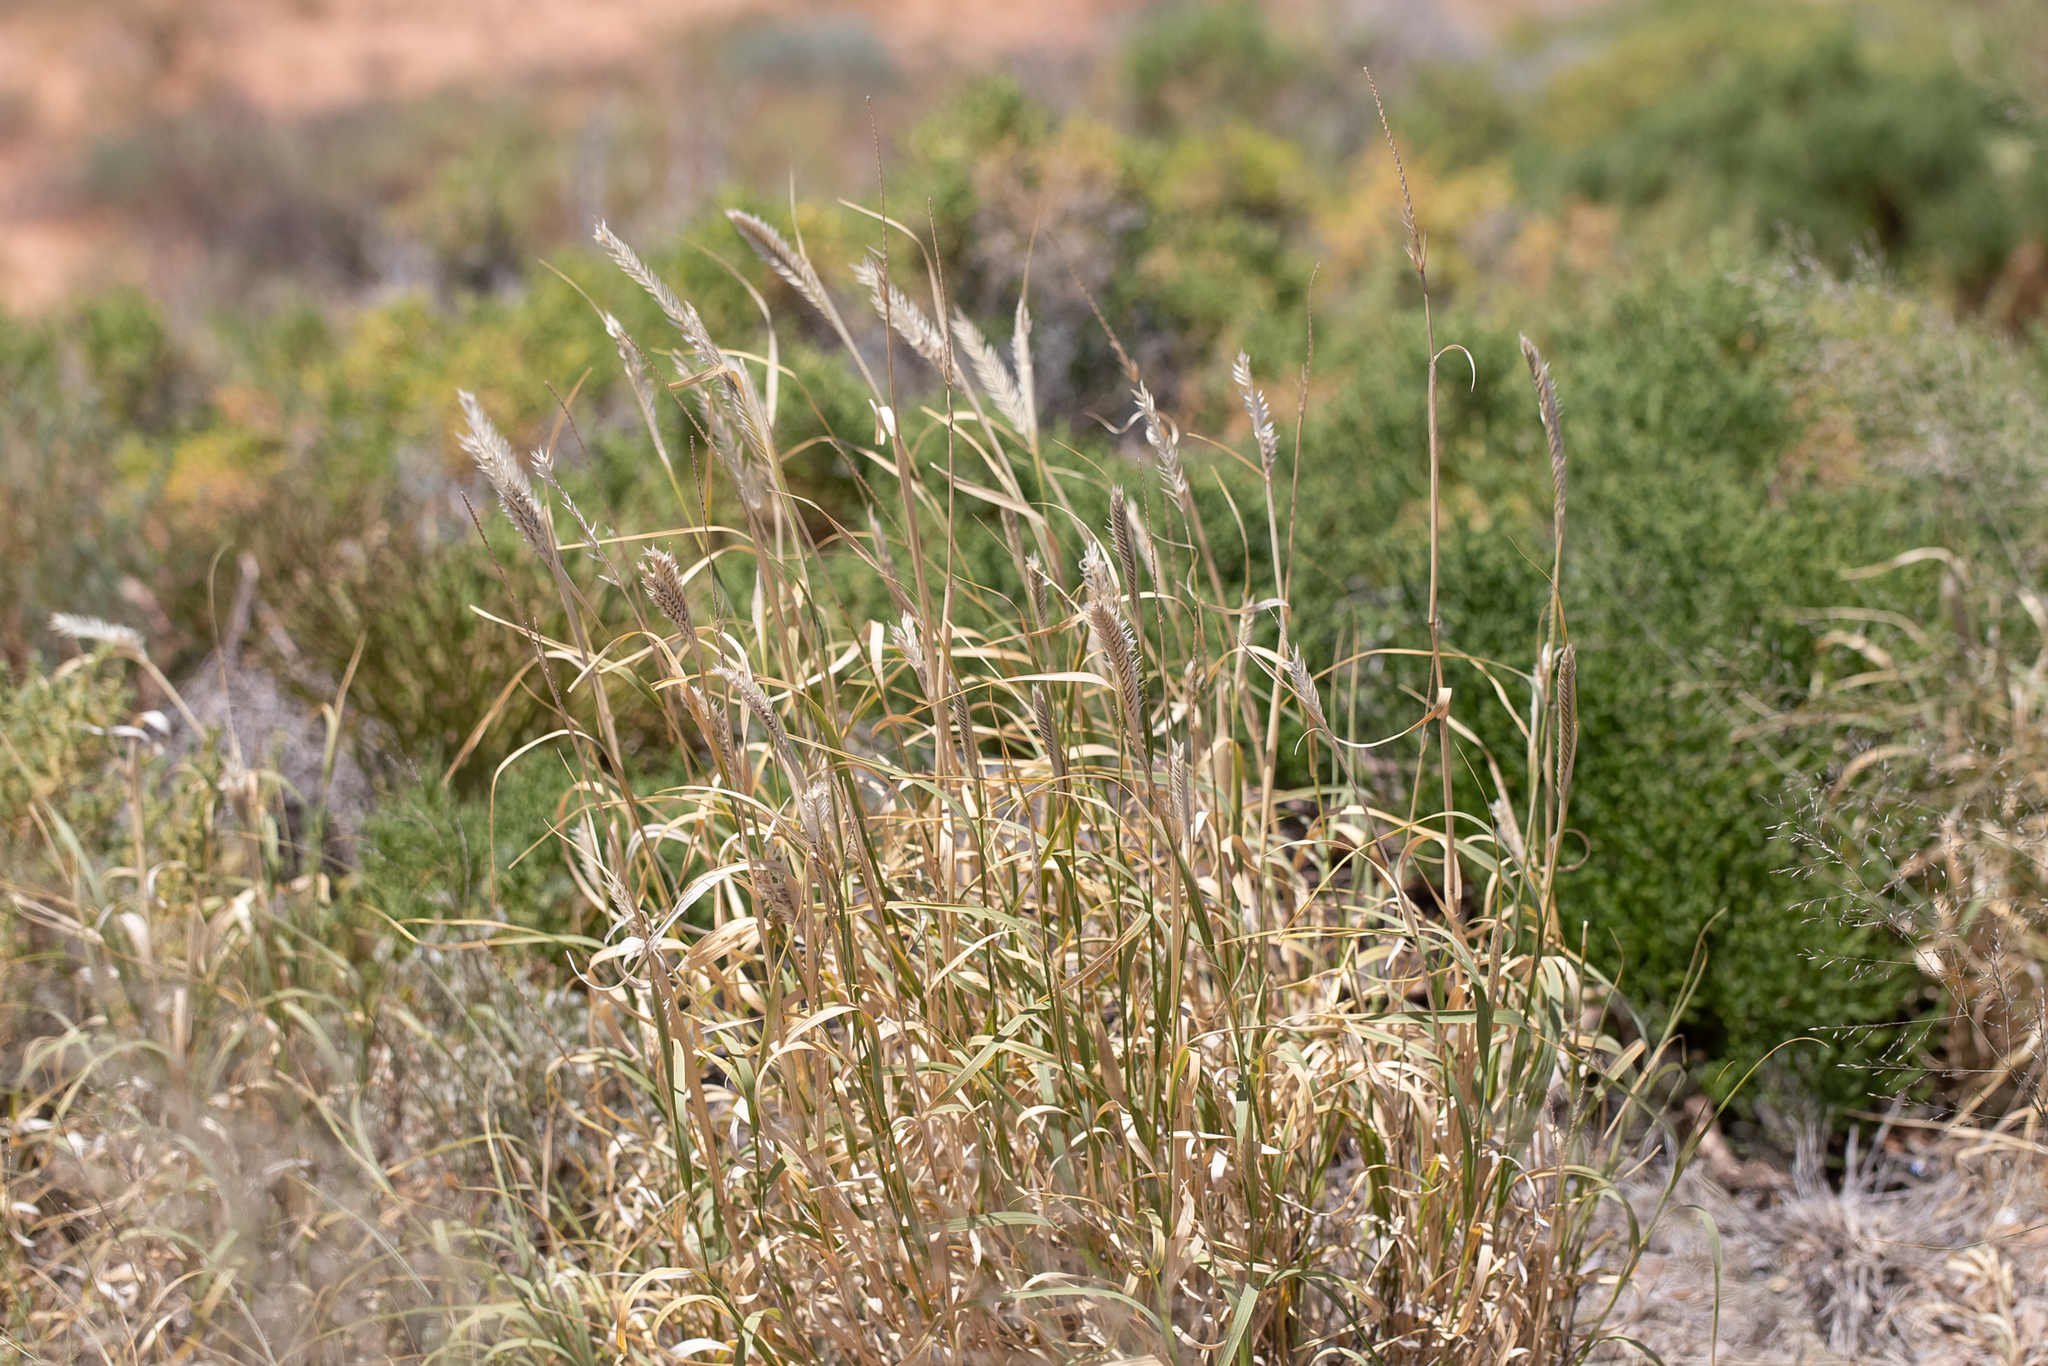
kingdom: Plantae
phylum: Tracheophyta
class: Liliopsida
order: Poales
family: Poaceae
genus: Astrebla
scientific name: Astrebla pectinata
